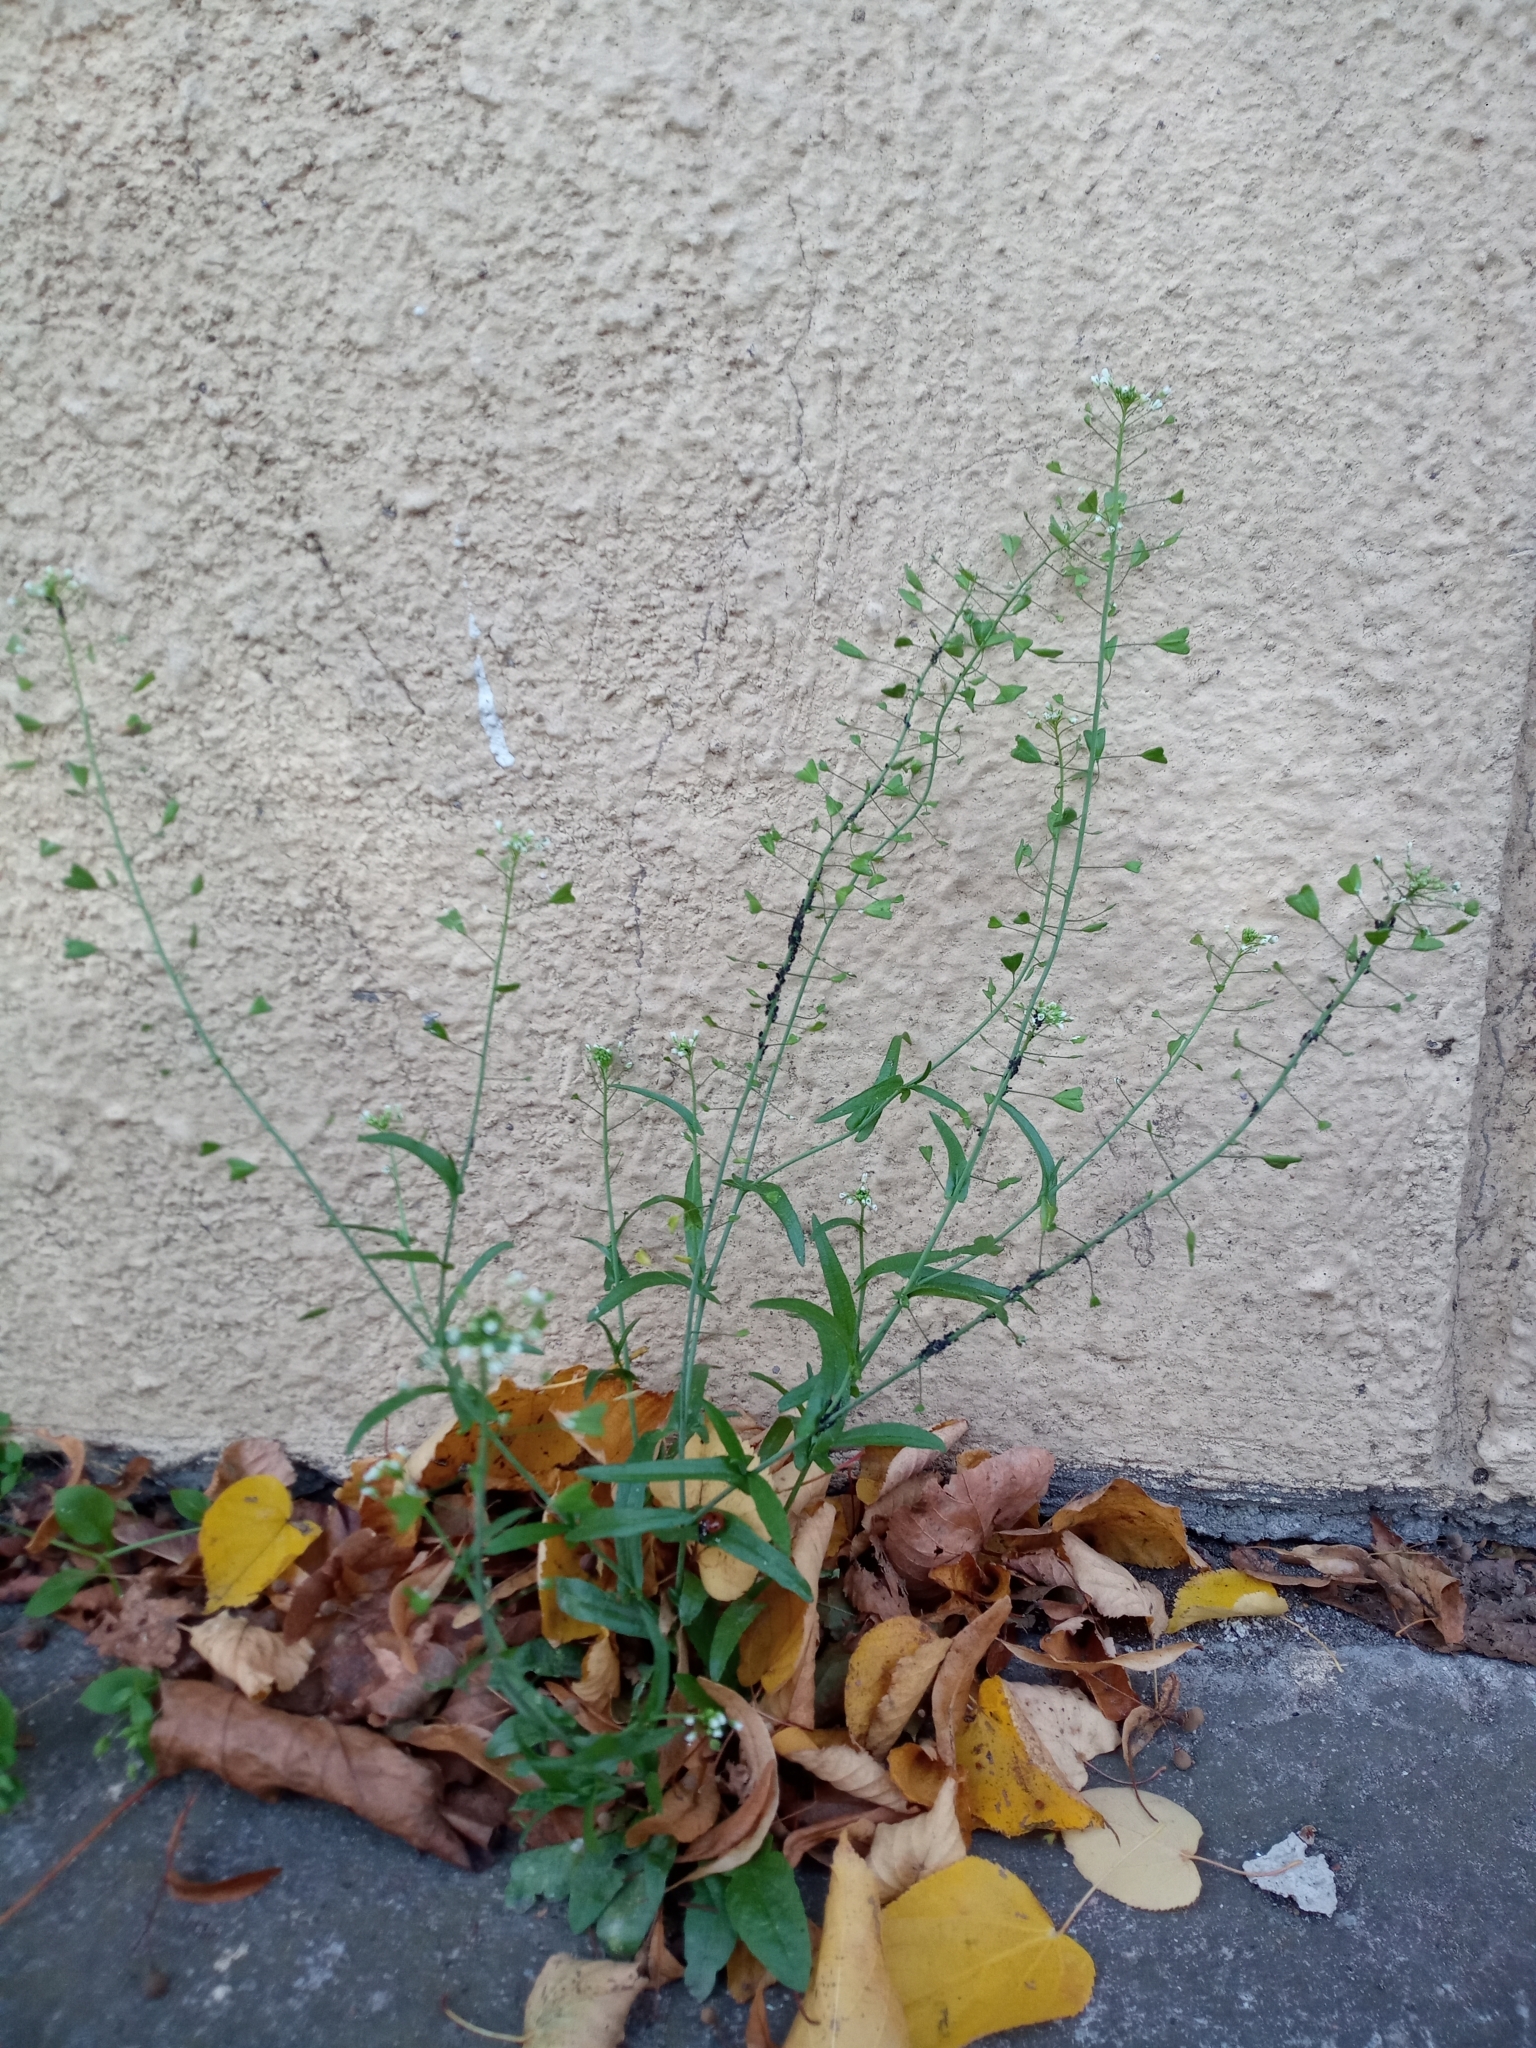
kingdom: Plantae
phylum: Tracheophyta
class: Magnoliopsida
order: Brassicales
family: Brassicaceae
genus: Capsella
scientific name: Capsella bursa-pastoris
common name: Shepherd's purse
